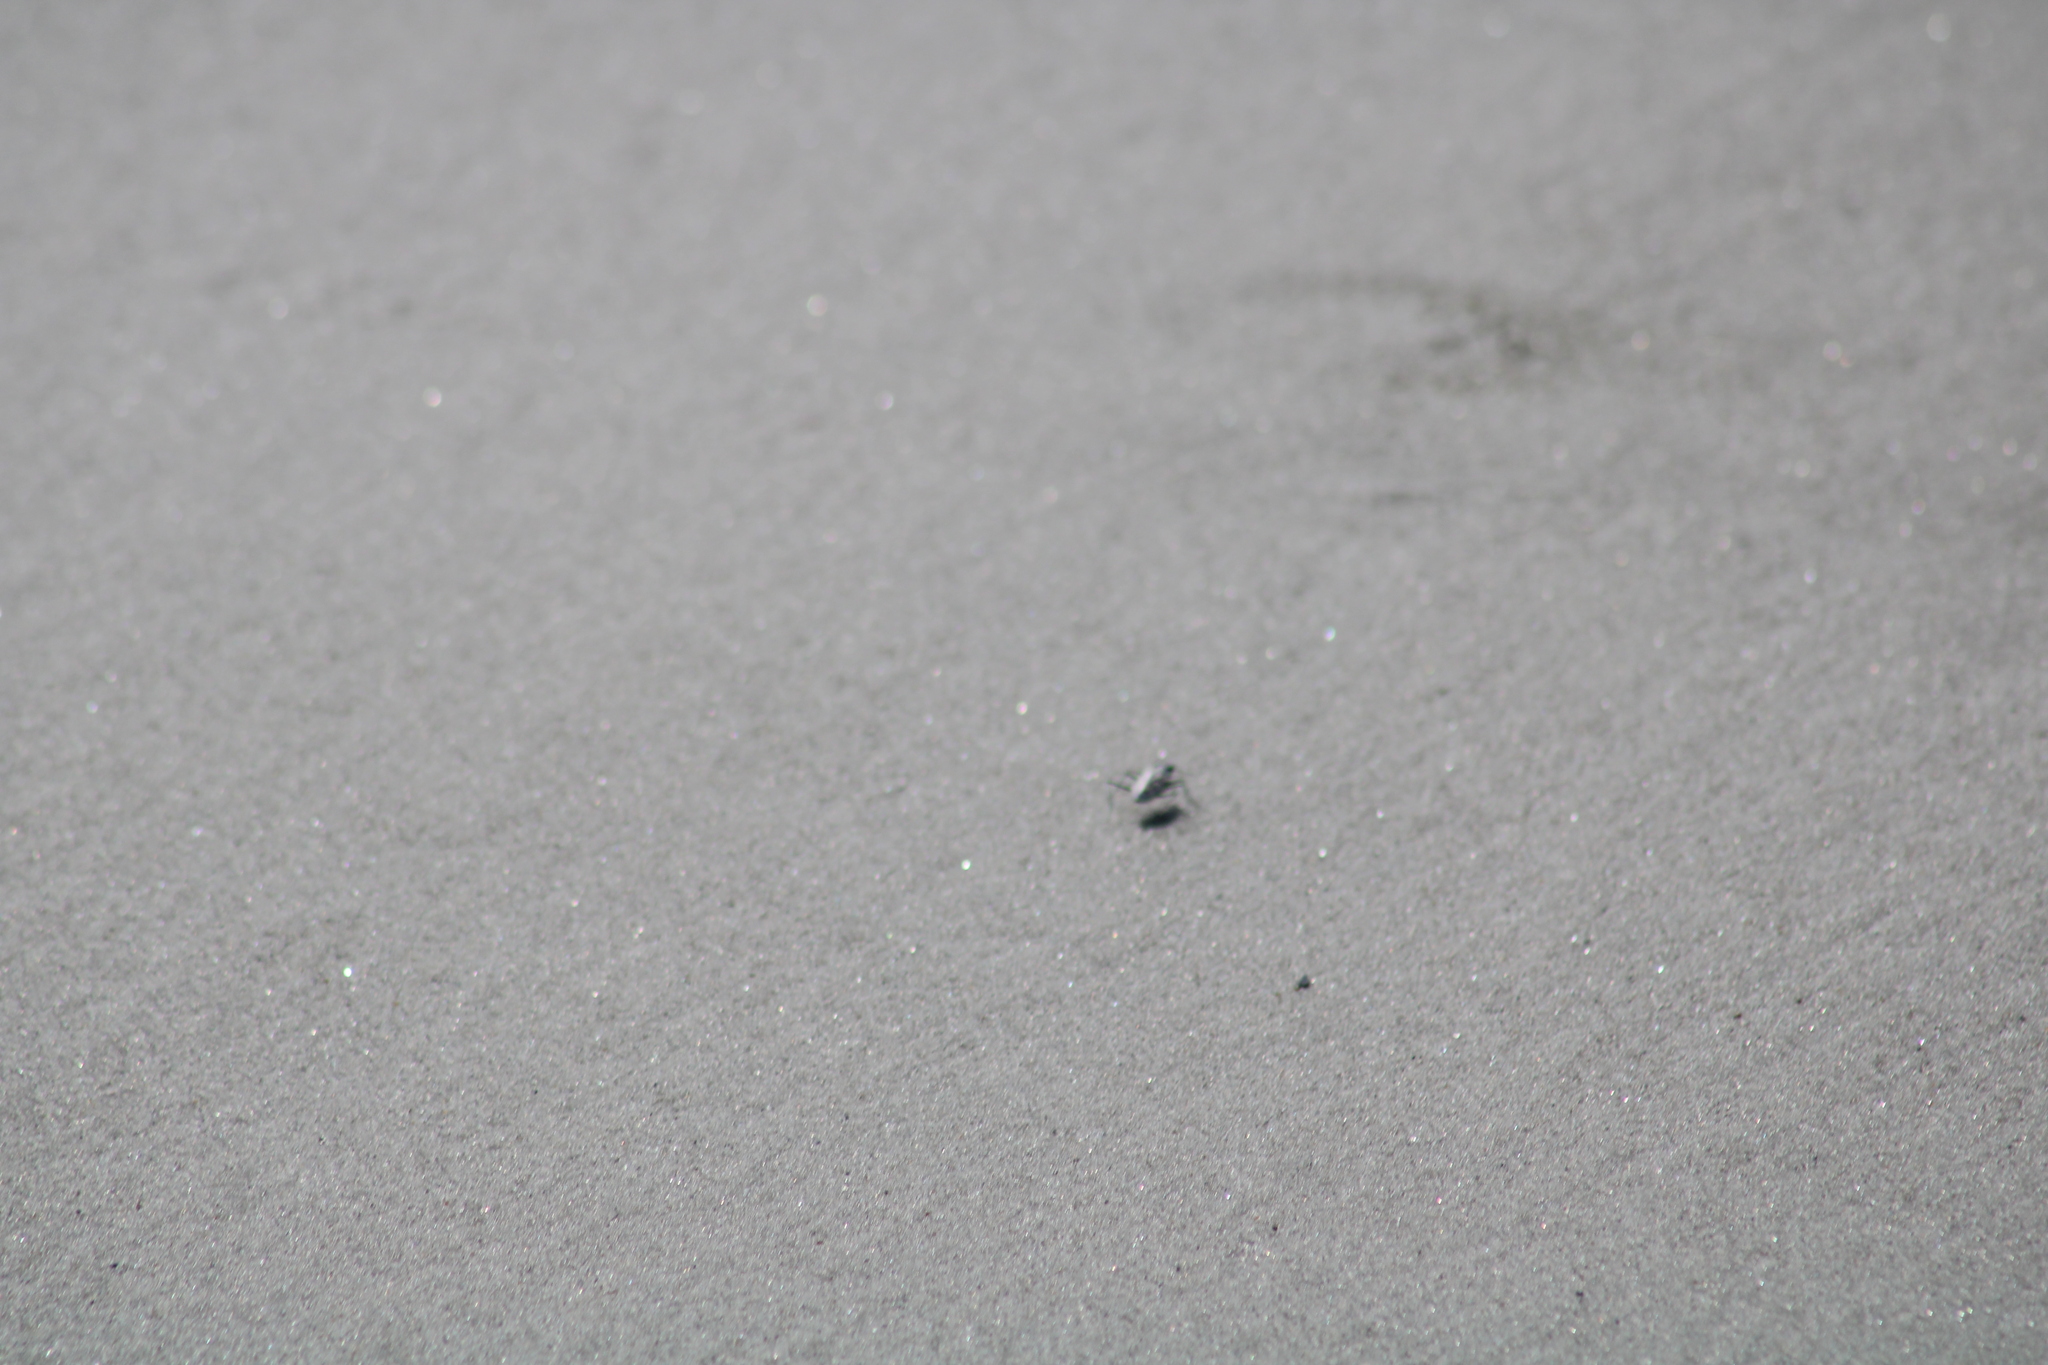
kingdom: Animalia
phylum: Arthropoda
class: Insecta
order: Coleoptera
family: Carabidae
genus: Habroscelimorpha
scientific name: Habroscelimorpha dorsalis
